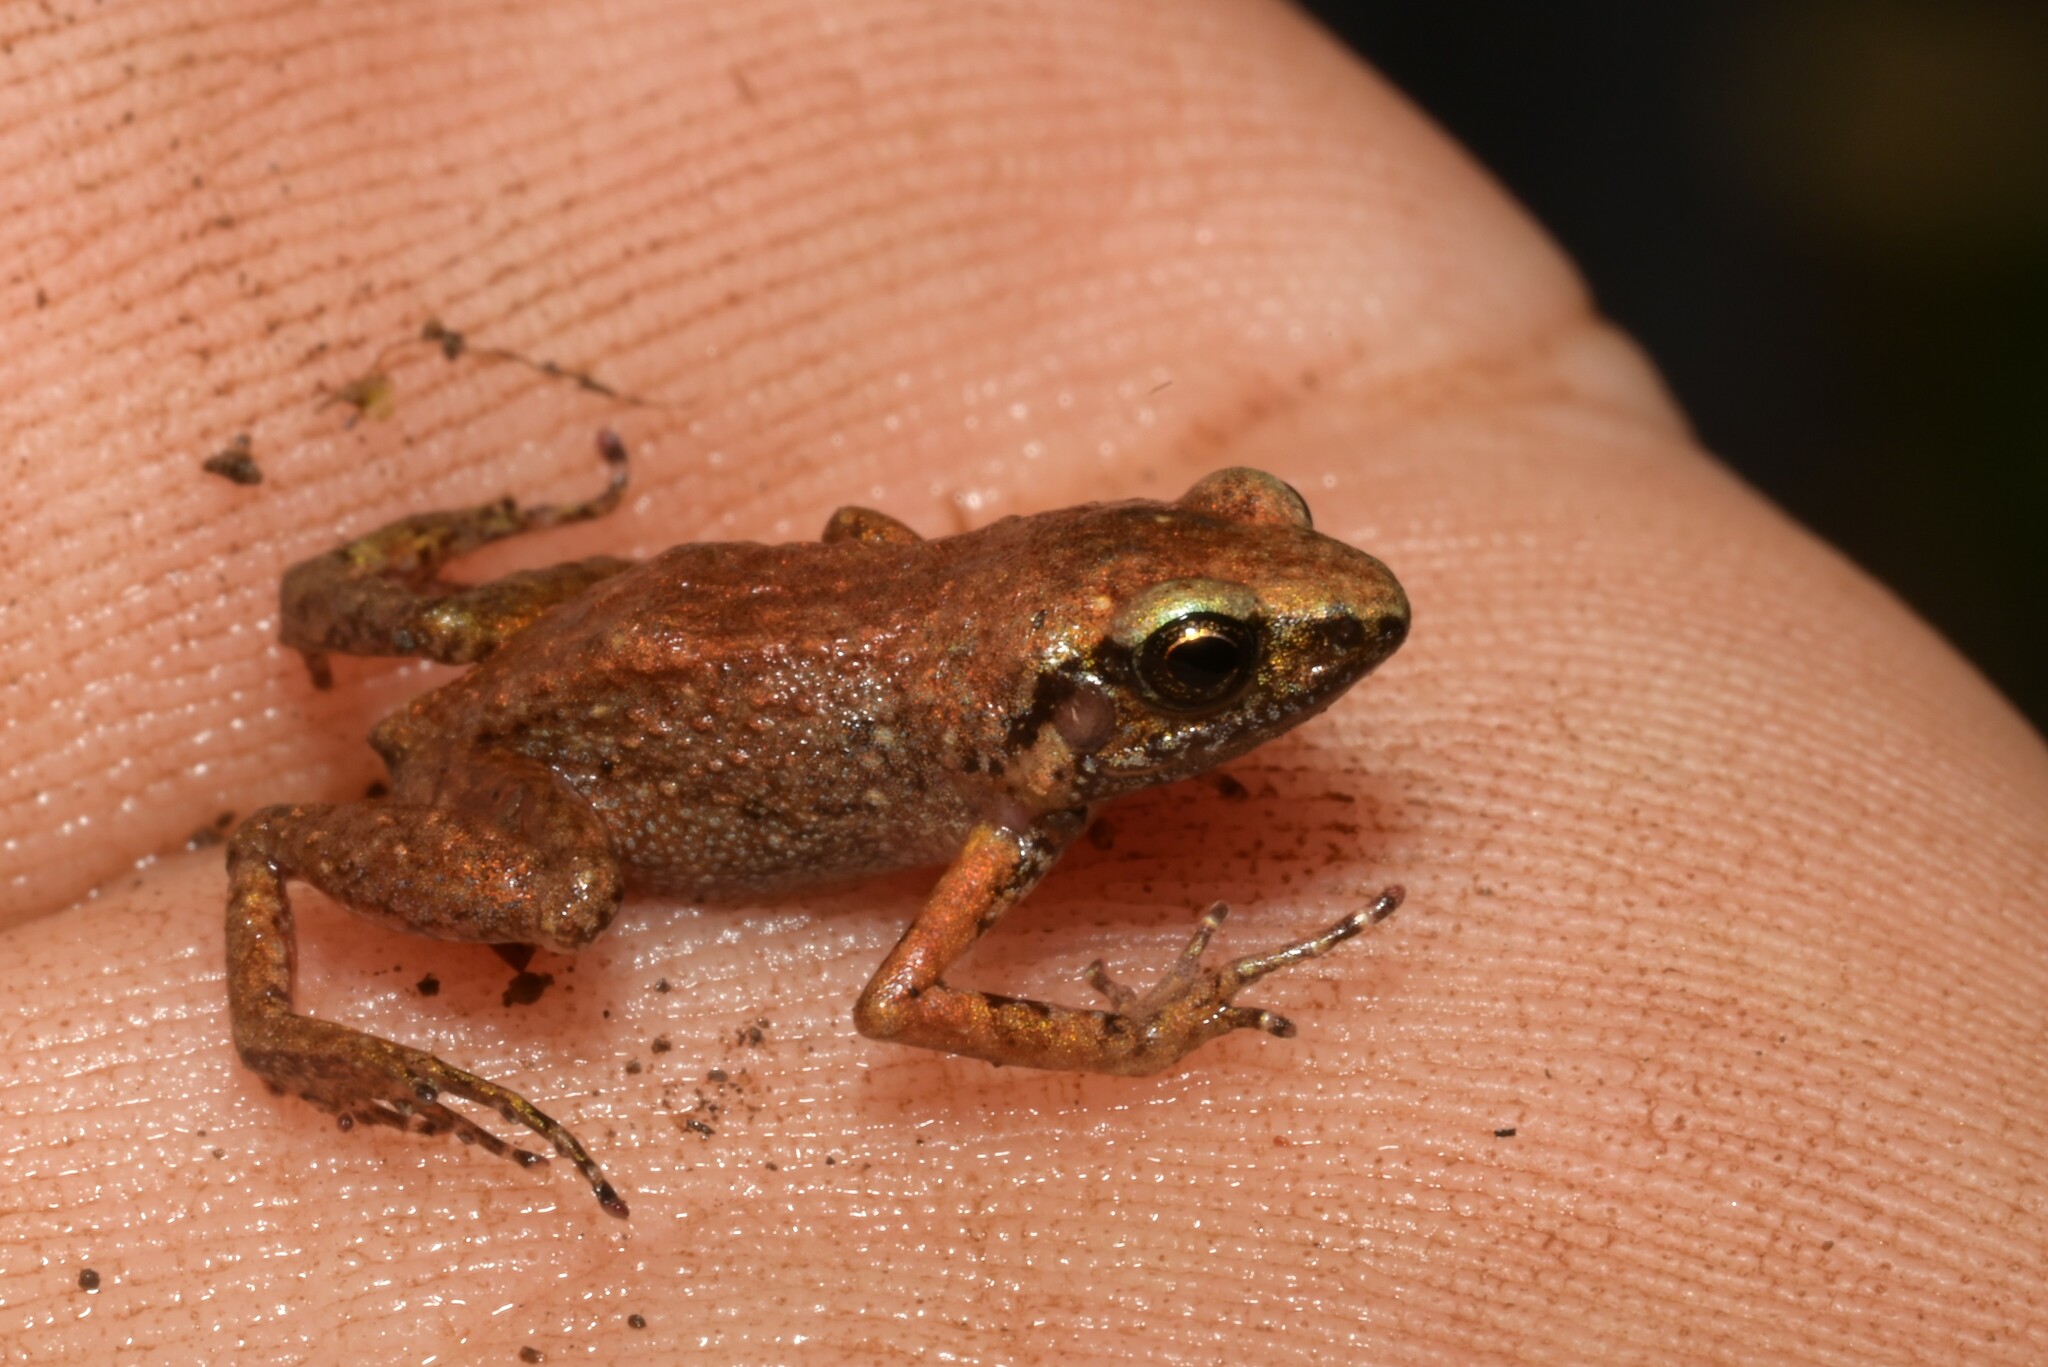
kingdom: Animalia
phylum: Chordata
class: Amphibia
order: Anura
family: Arthroleptidae
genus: Arthroleptis
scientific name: Arthroleptis xenodactyloides
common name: Chirinda screeching frog
